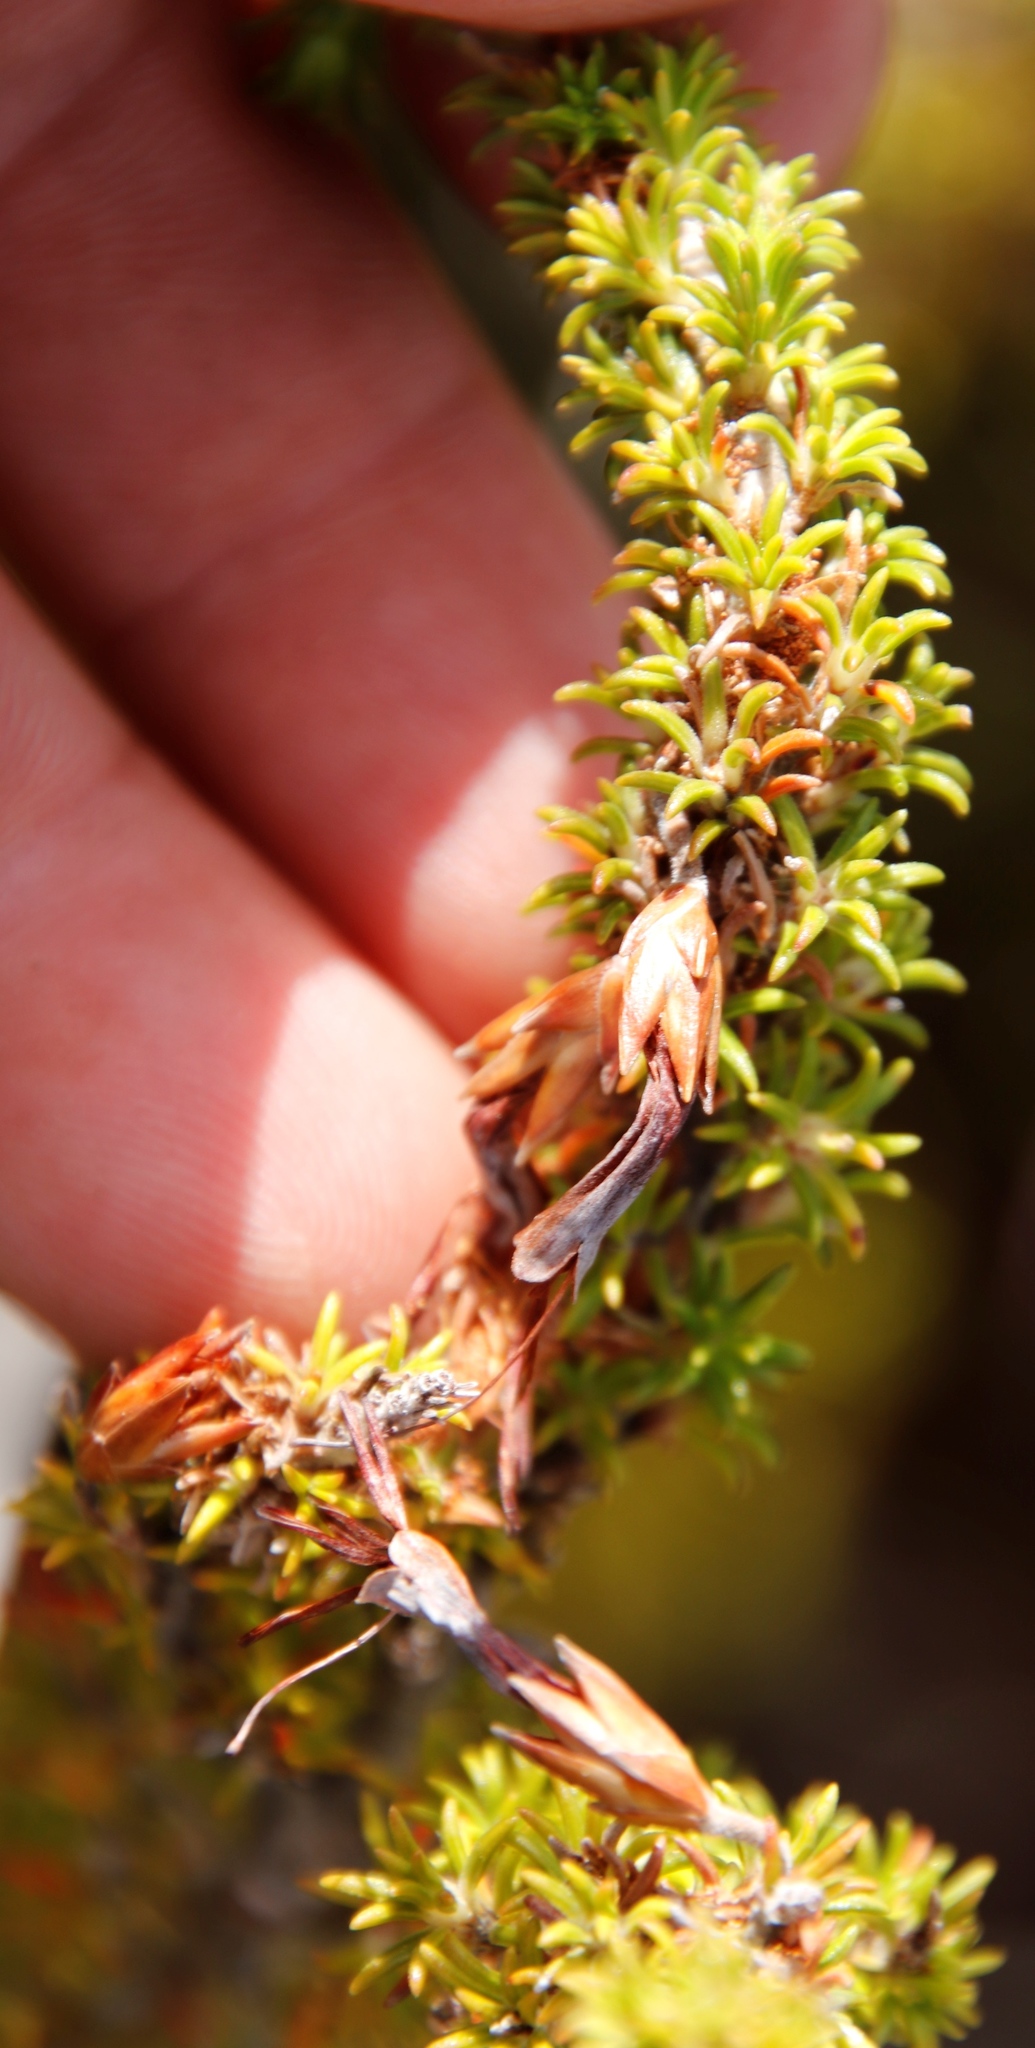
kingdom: Plantae
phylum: Tracheophyta
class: Magnoliopsida
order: Ericales
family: Ericaceae
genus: Erica
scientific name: Erica plukenetii
